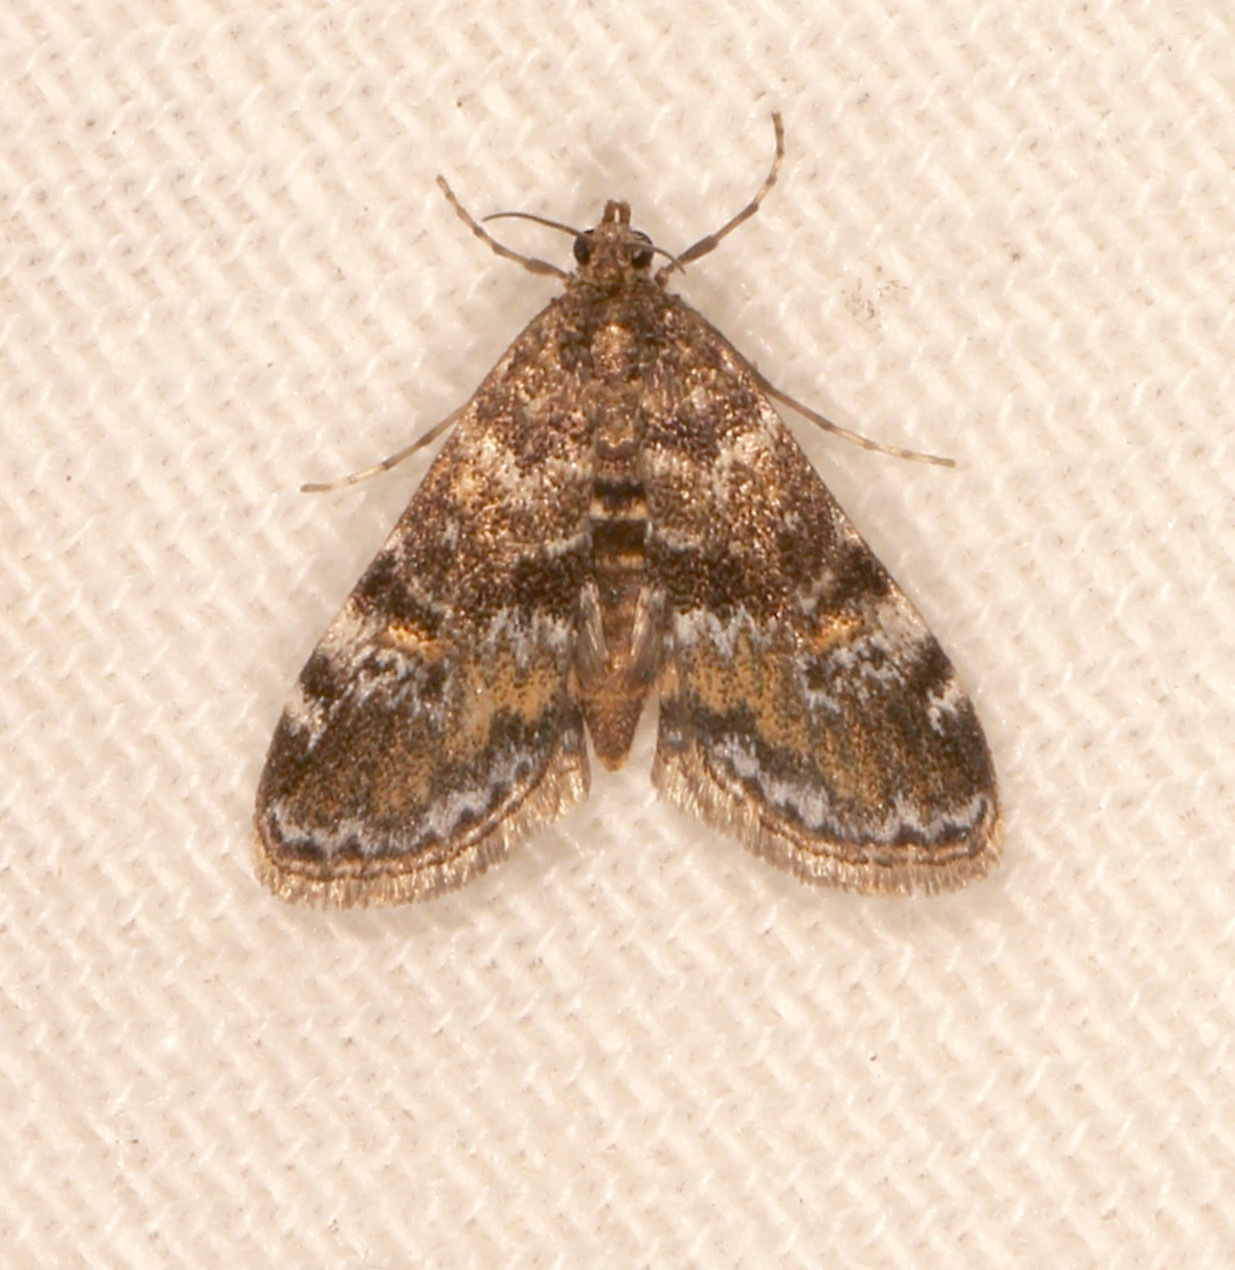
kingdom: Animalia
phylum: Arthropoda
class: Insecta
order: Lepidoptera
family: Crambidae
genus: Elophila
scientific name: Elophila obliteralis
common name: Waterlily leafcutter moth
